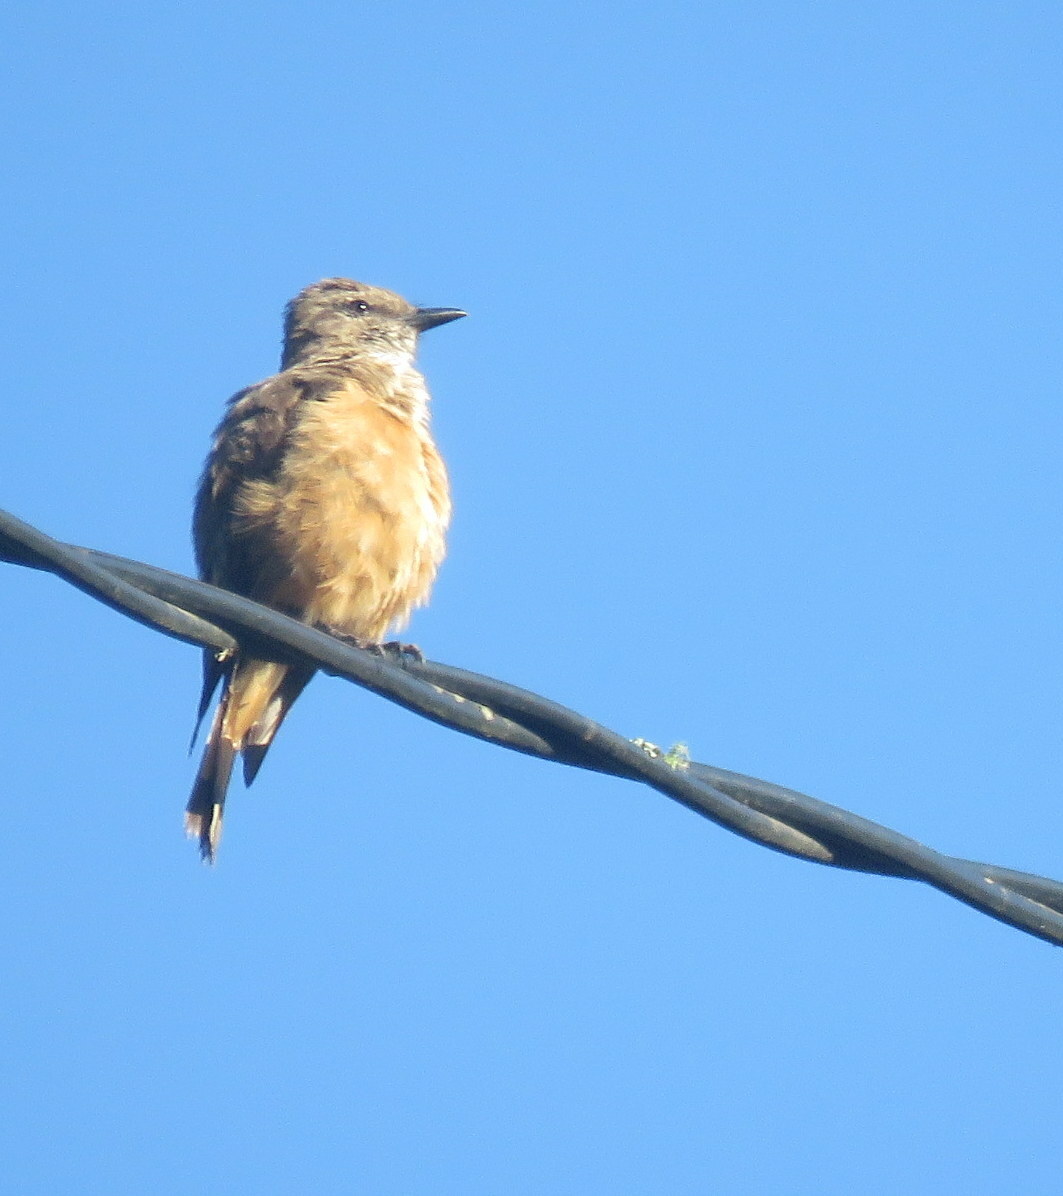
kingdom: Animalia
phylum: Chordata
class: Aves
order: Passeriformes
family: Tyrannidae
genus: Myiotheretes
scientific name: Myiotheretes striaticollis
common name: Streak-throated bush tyrant
